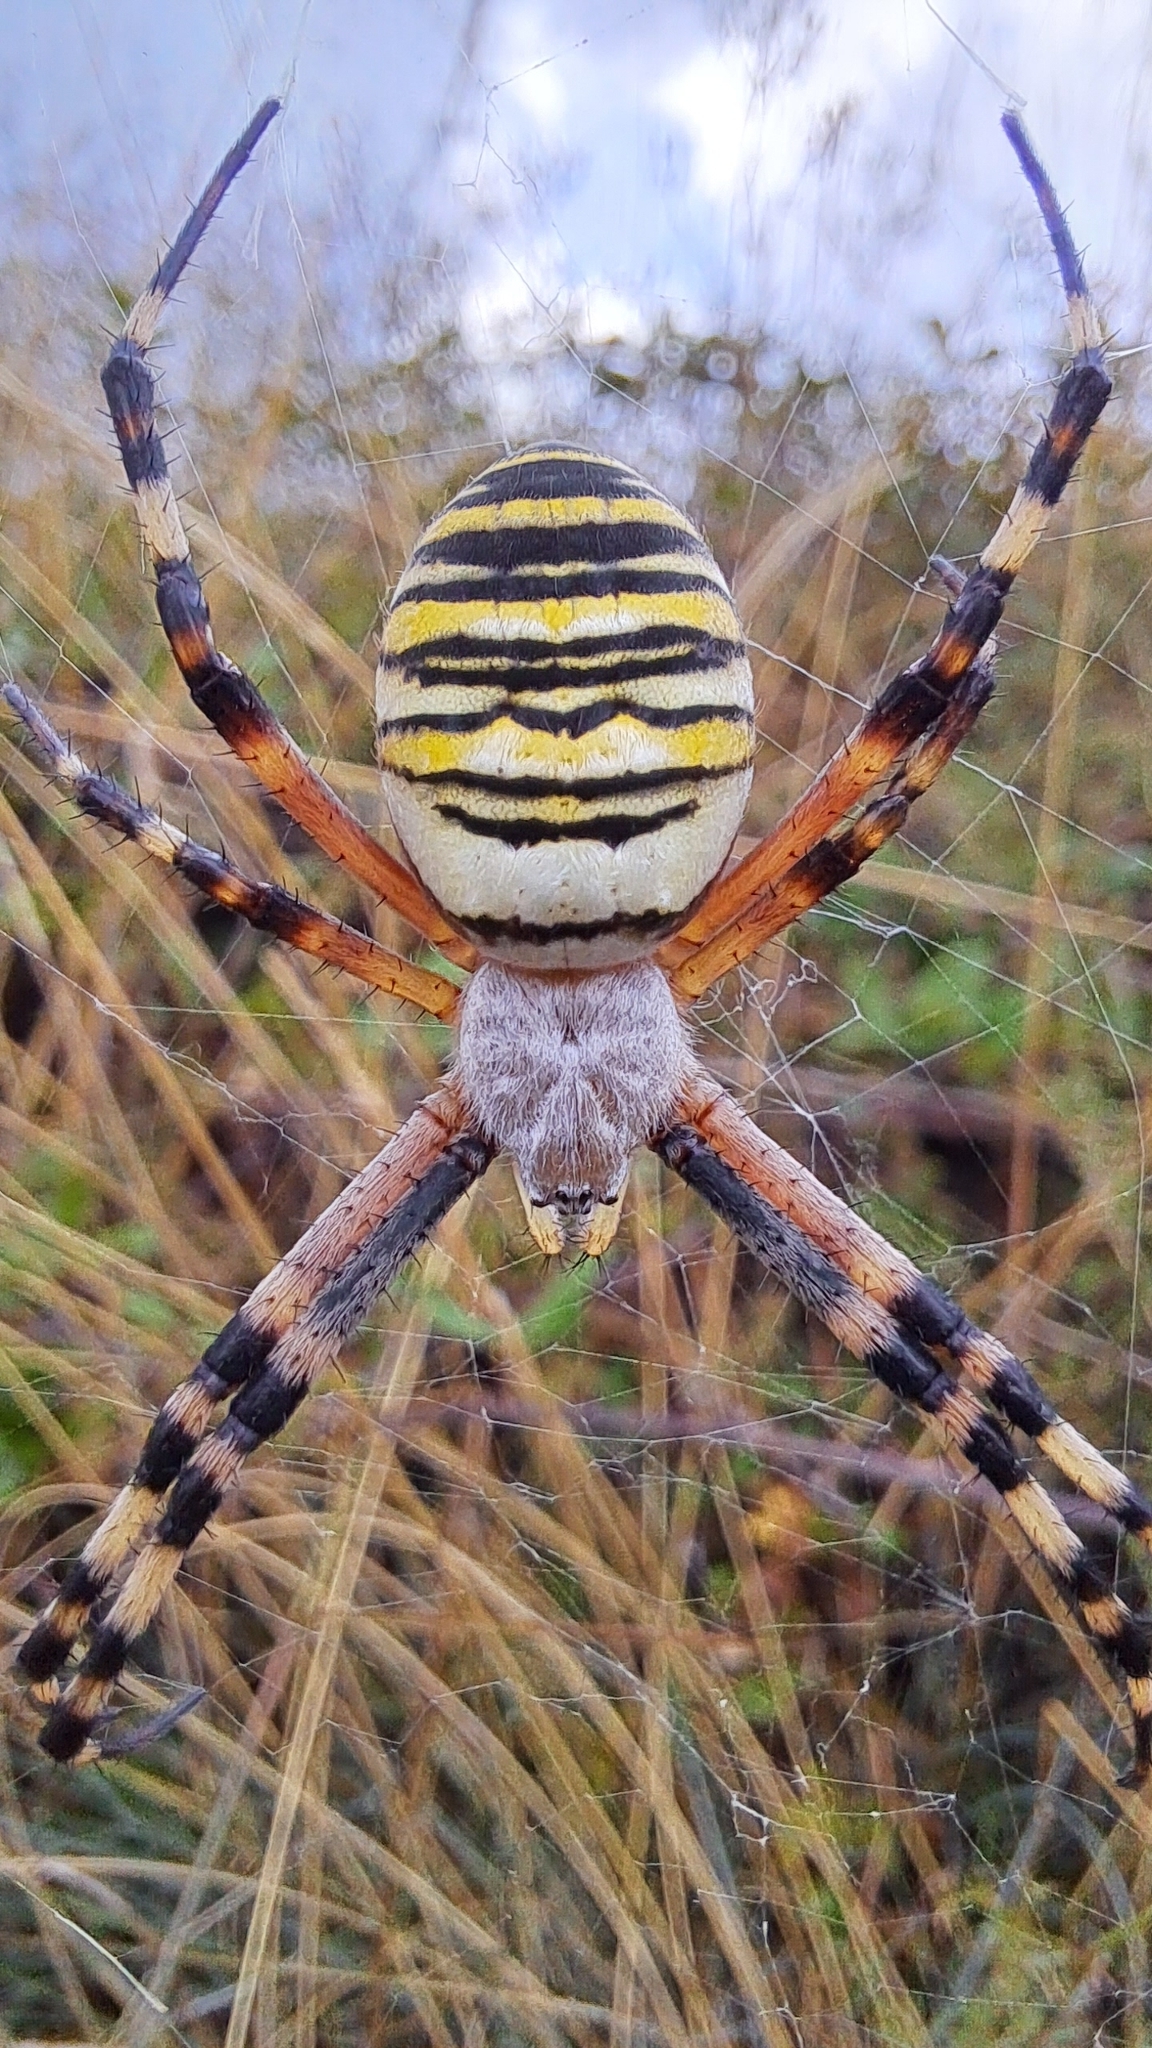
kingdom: Animalia
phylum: Arthropoda
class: Arachnida
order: Araneae
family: Araneidae
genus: Argiope
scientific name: Argiope bruennichi
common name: Wasp spider
